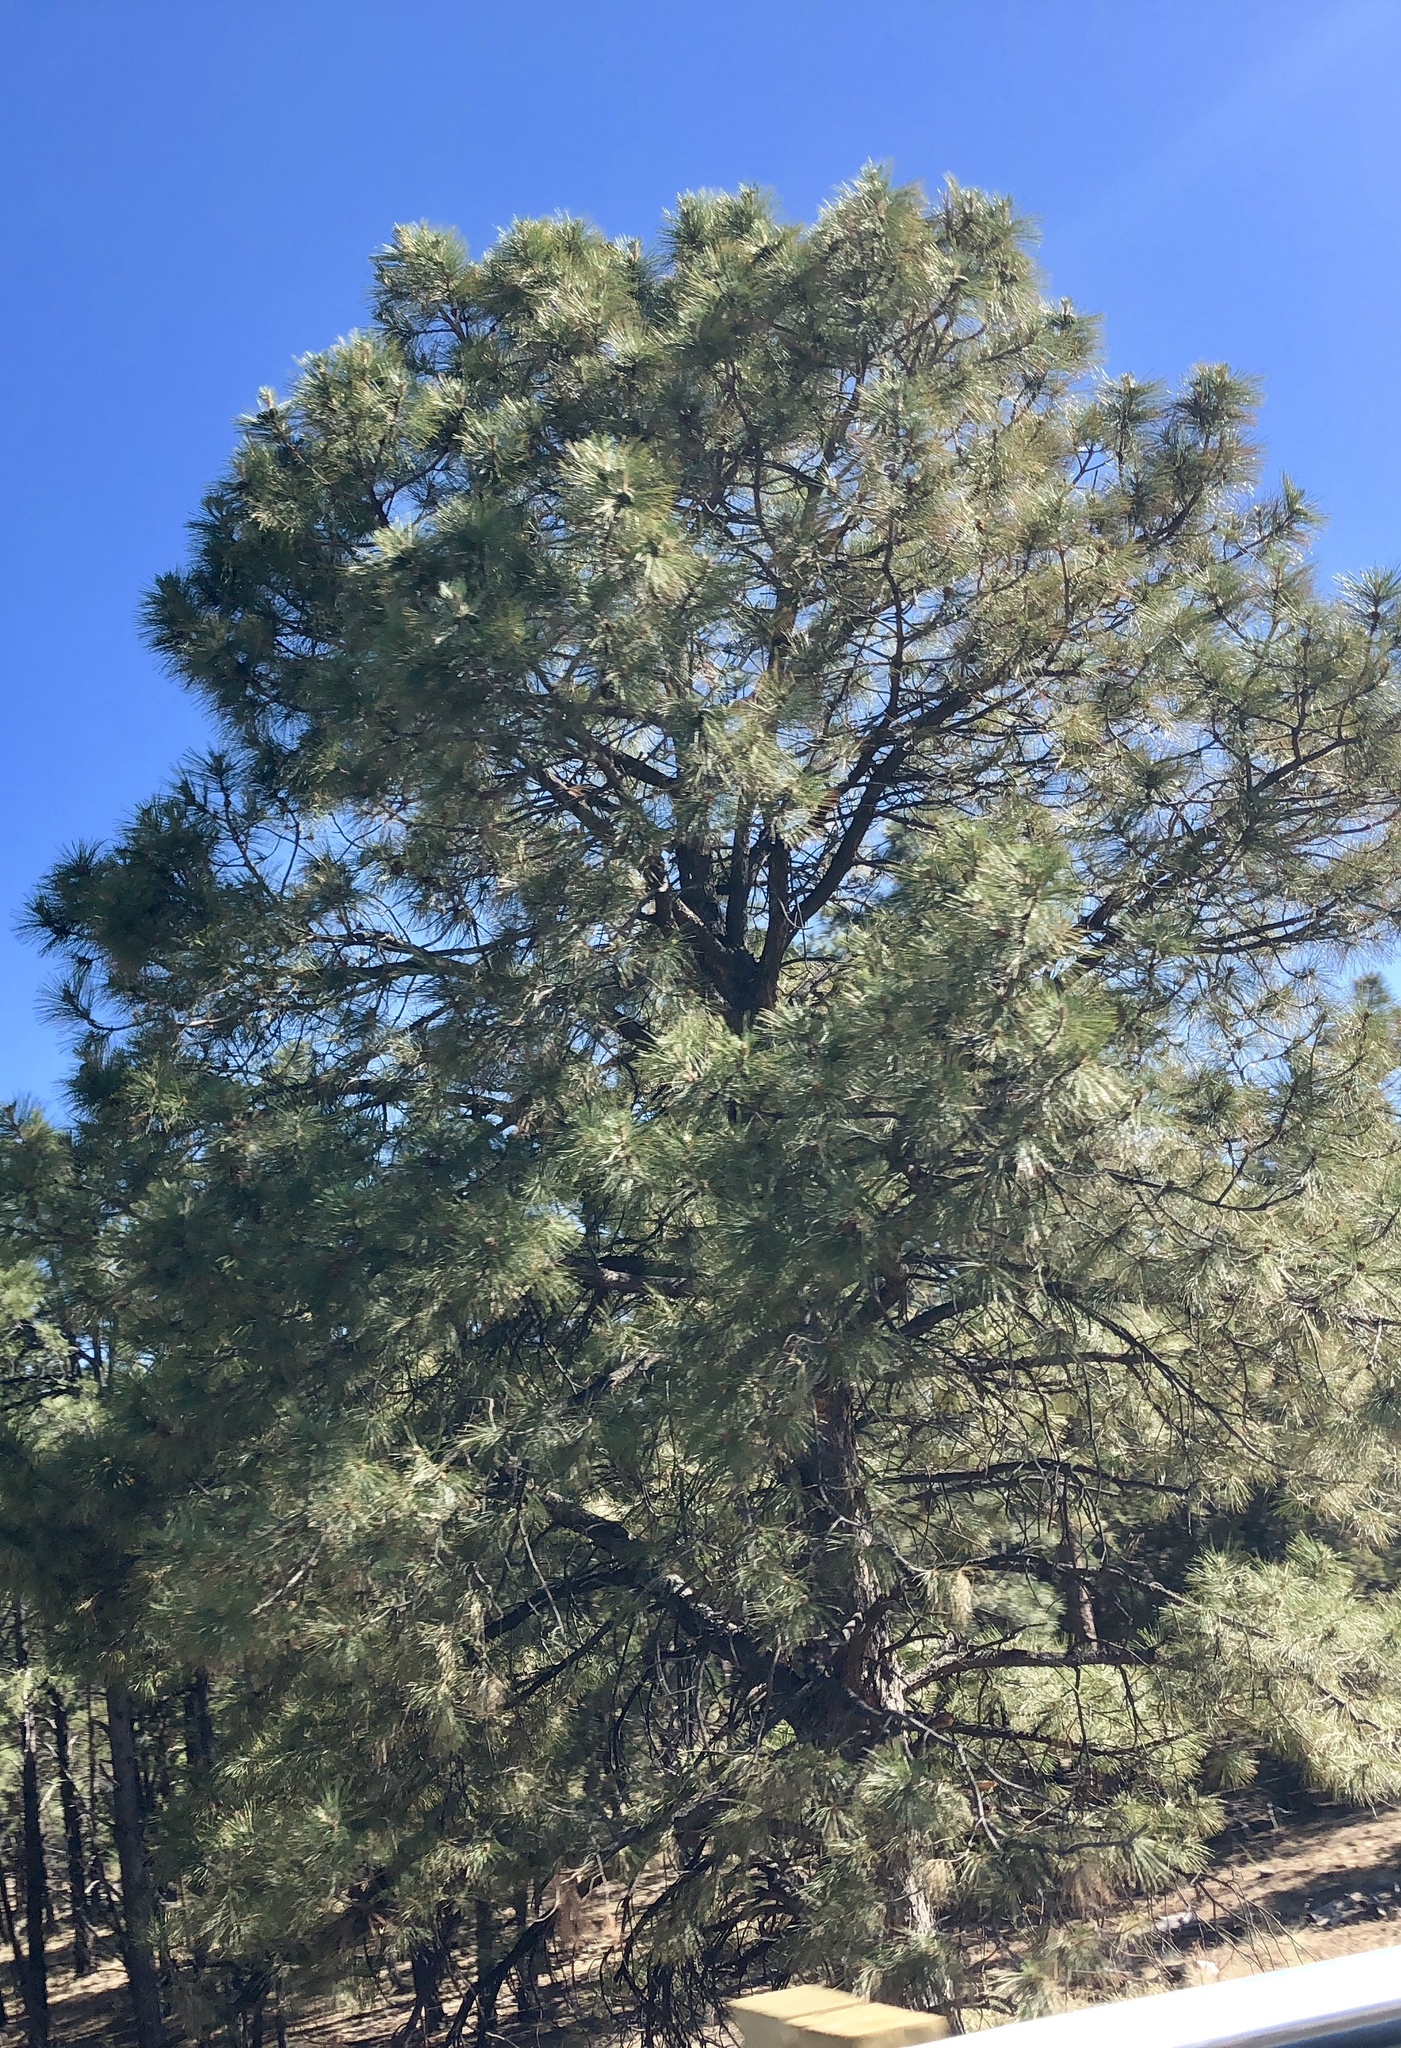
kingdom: Plantae
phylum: Tracheophyta
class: Pinopsida
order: Pinales
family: Pinaceae
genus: Pinus
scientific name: Pinus ponderosa
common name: Western yellow-pine
